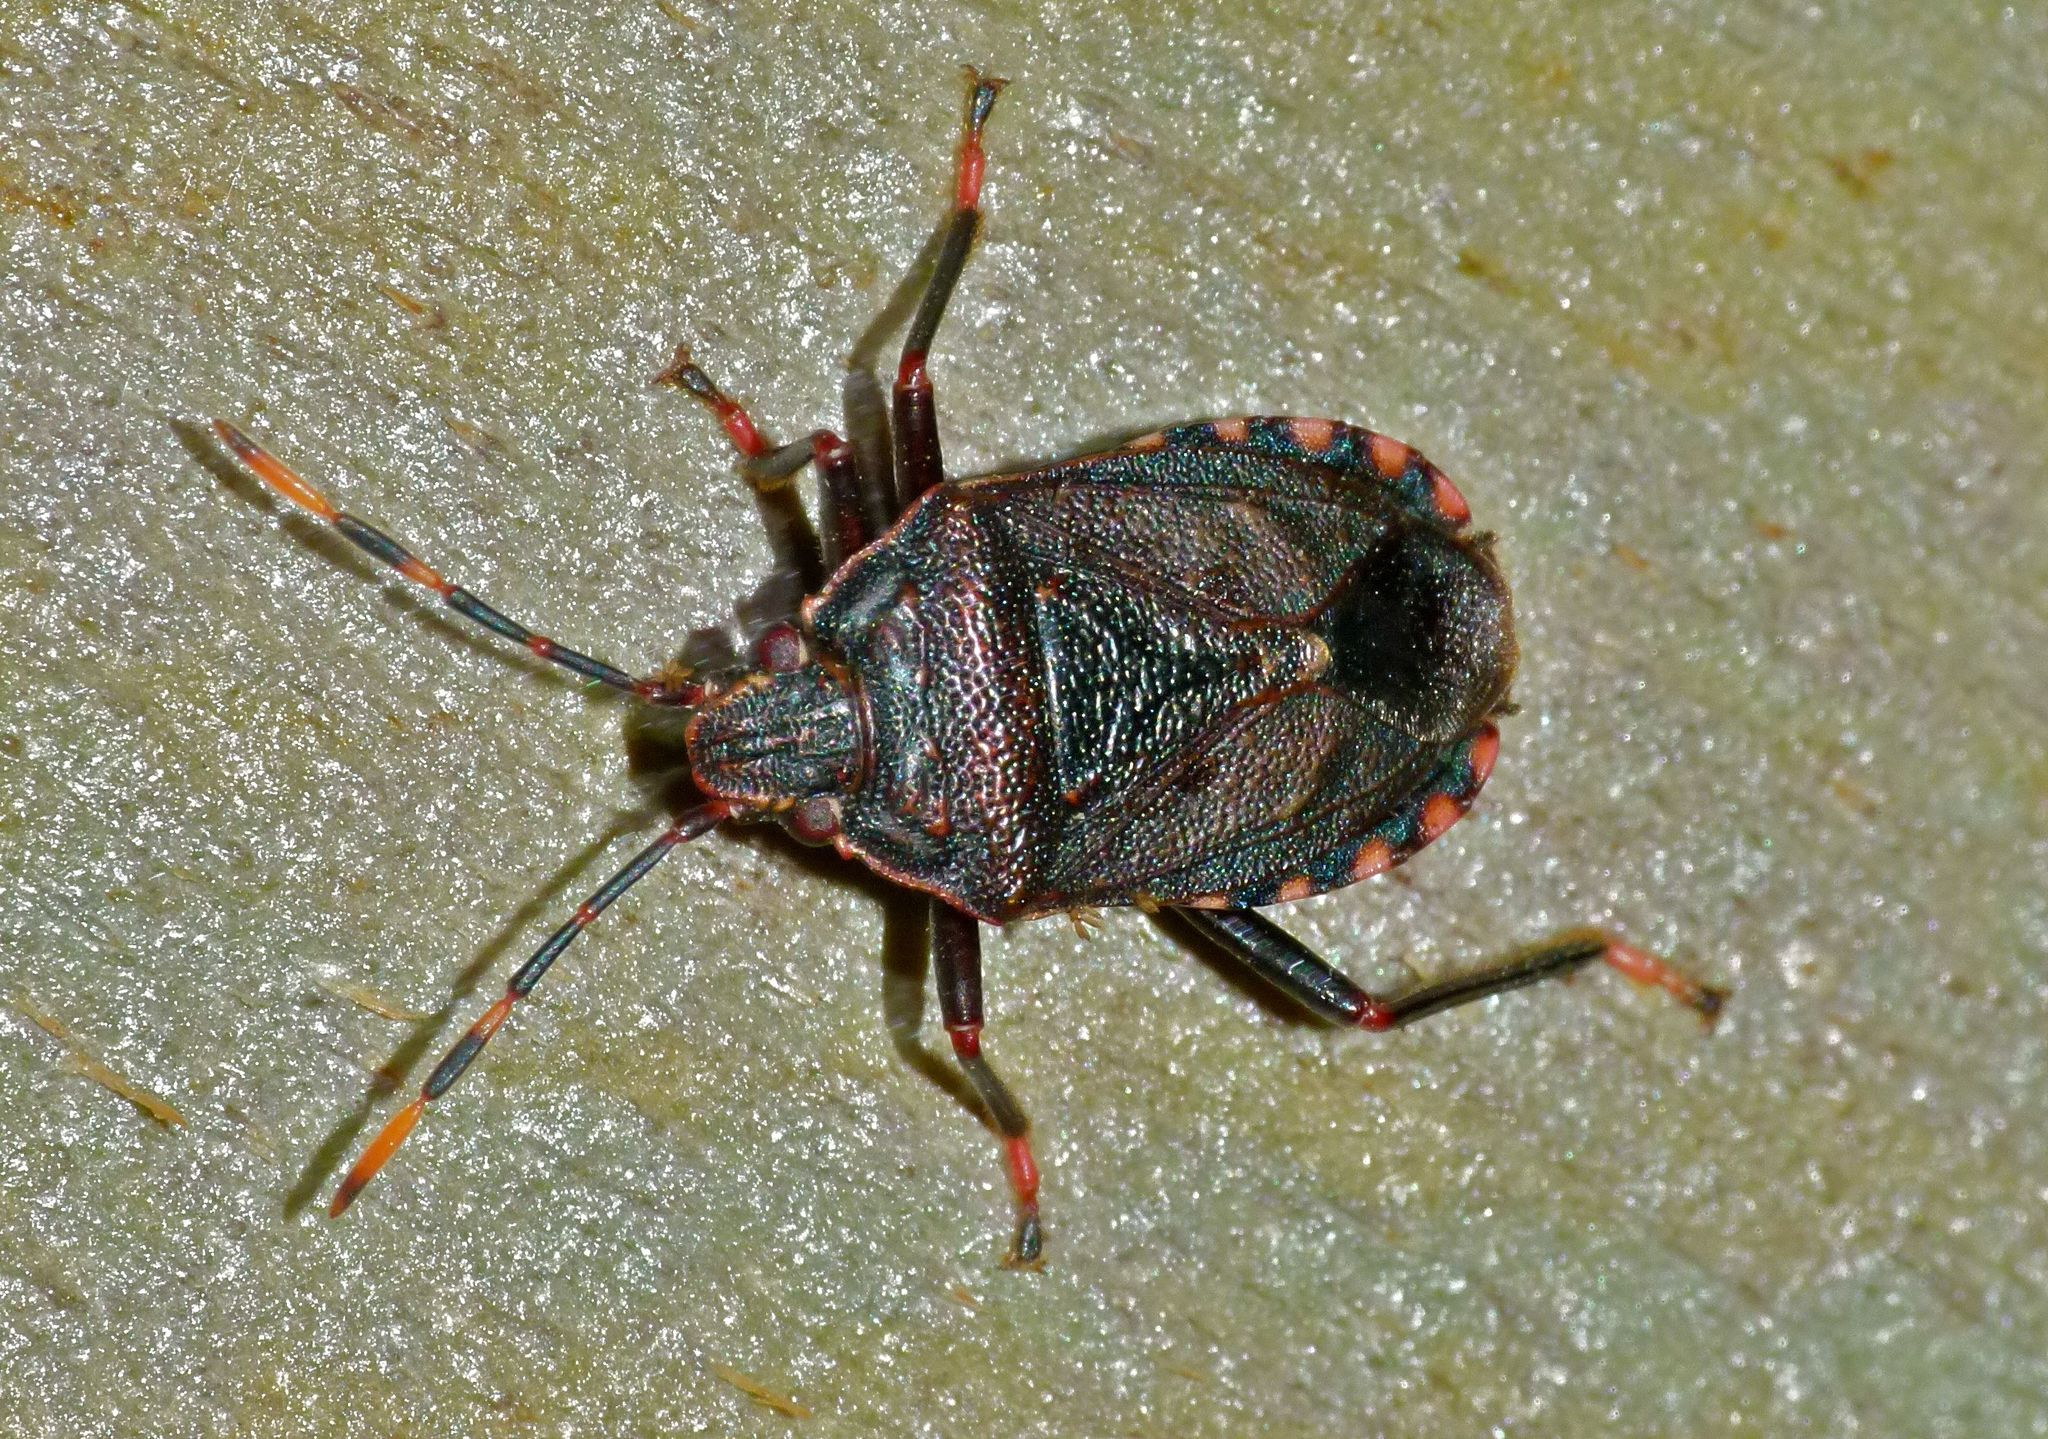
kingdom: Animalia
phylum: Arthropoda
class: Insecta
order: Hemiptera
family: Pentatomidae
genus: Notius
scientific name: Notius
